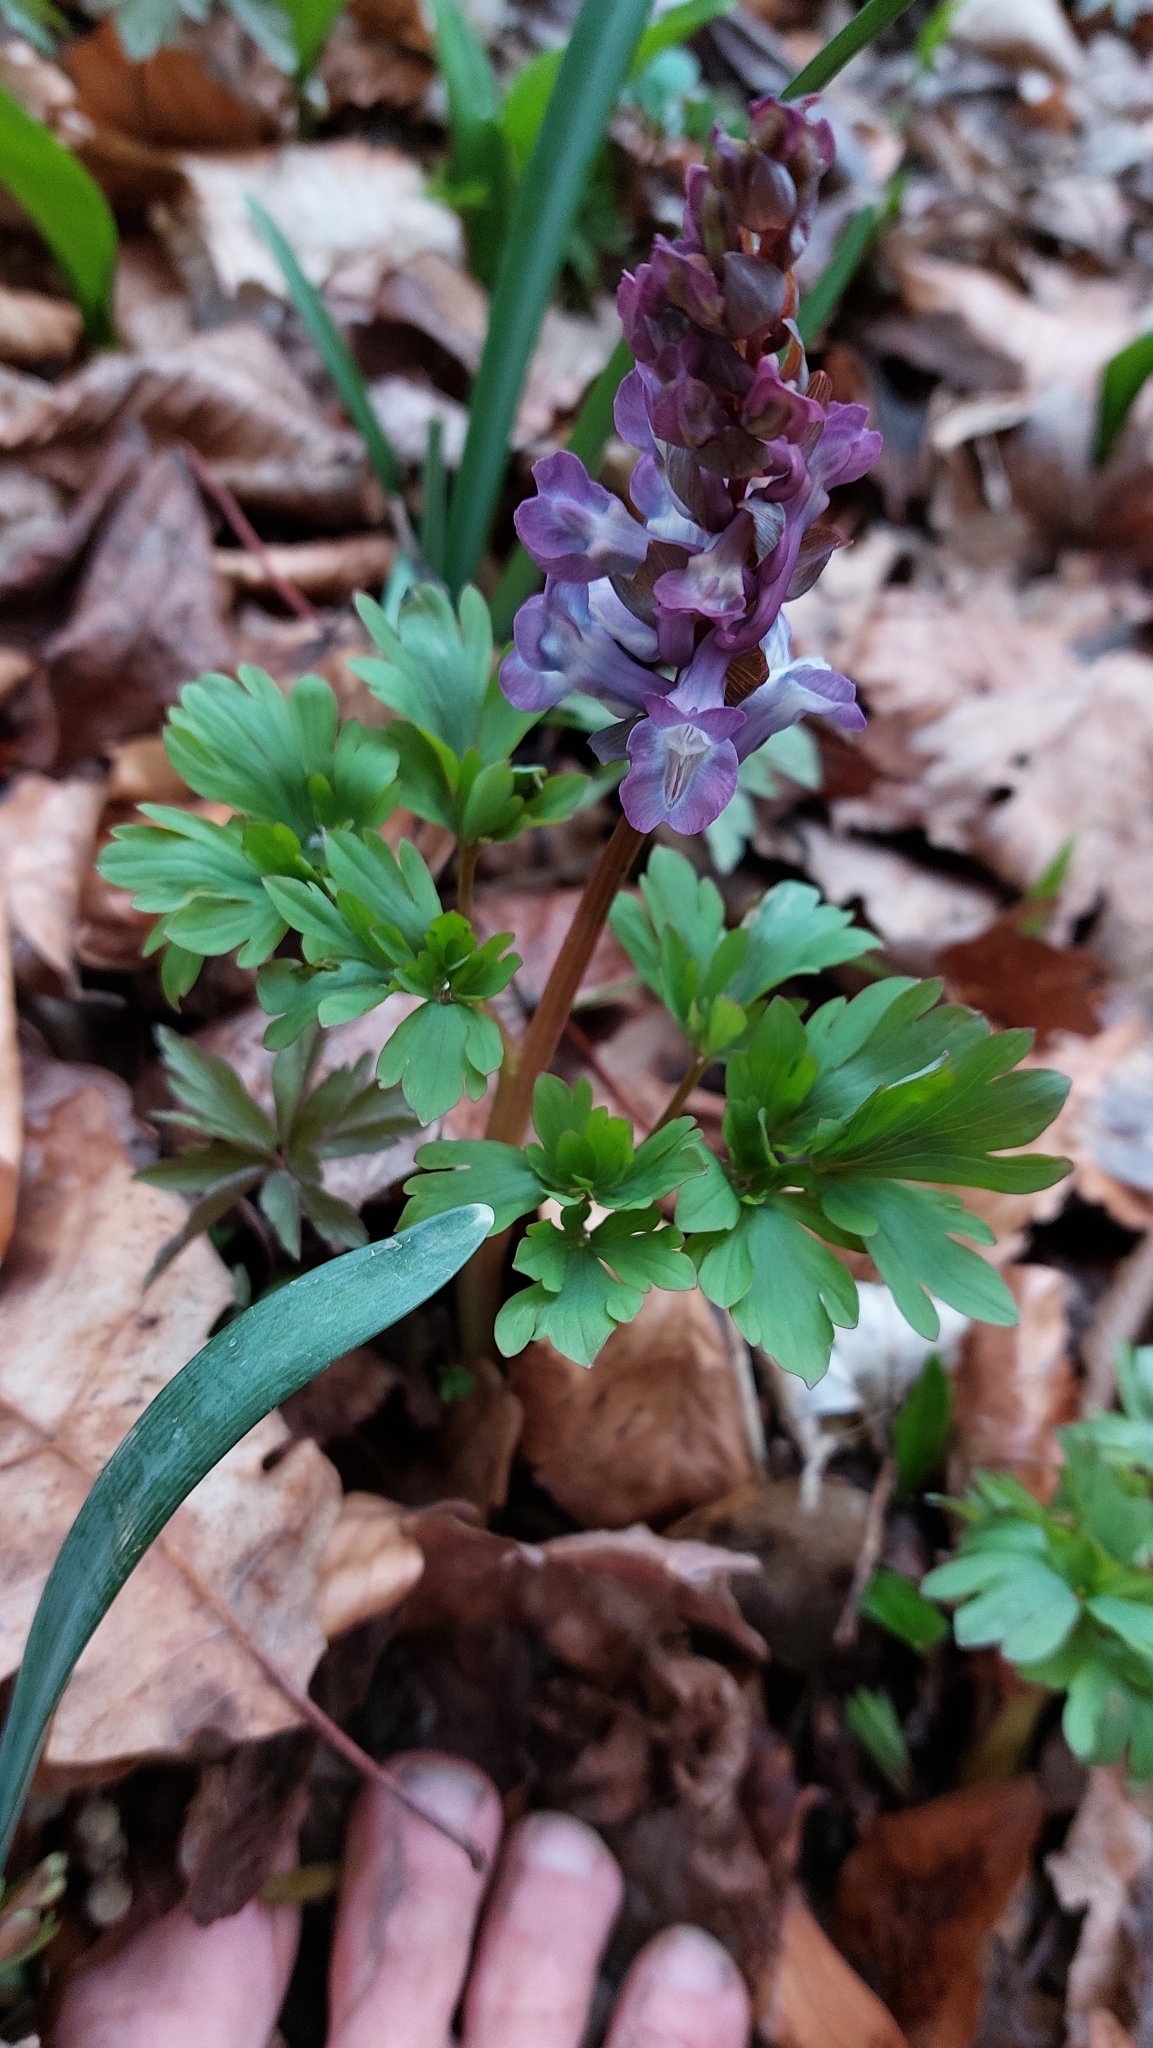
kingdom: Plantae
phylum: Tracheophyta
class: Magnoliopsida
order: Ranunculales
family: Papaveraceae
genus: Corydalis
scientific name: Corydalis cava
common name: Hollowroot
